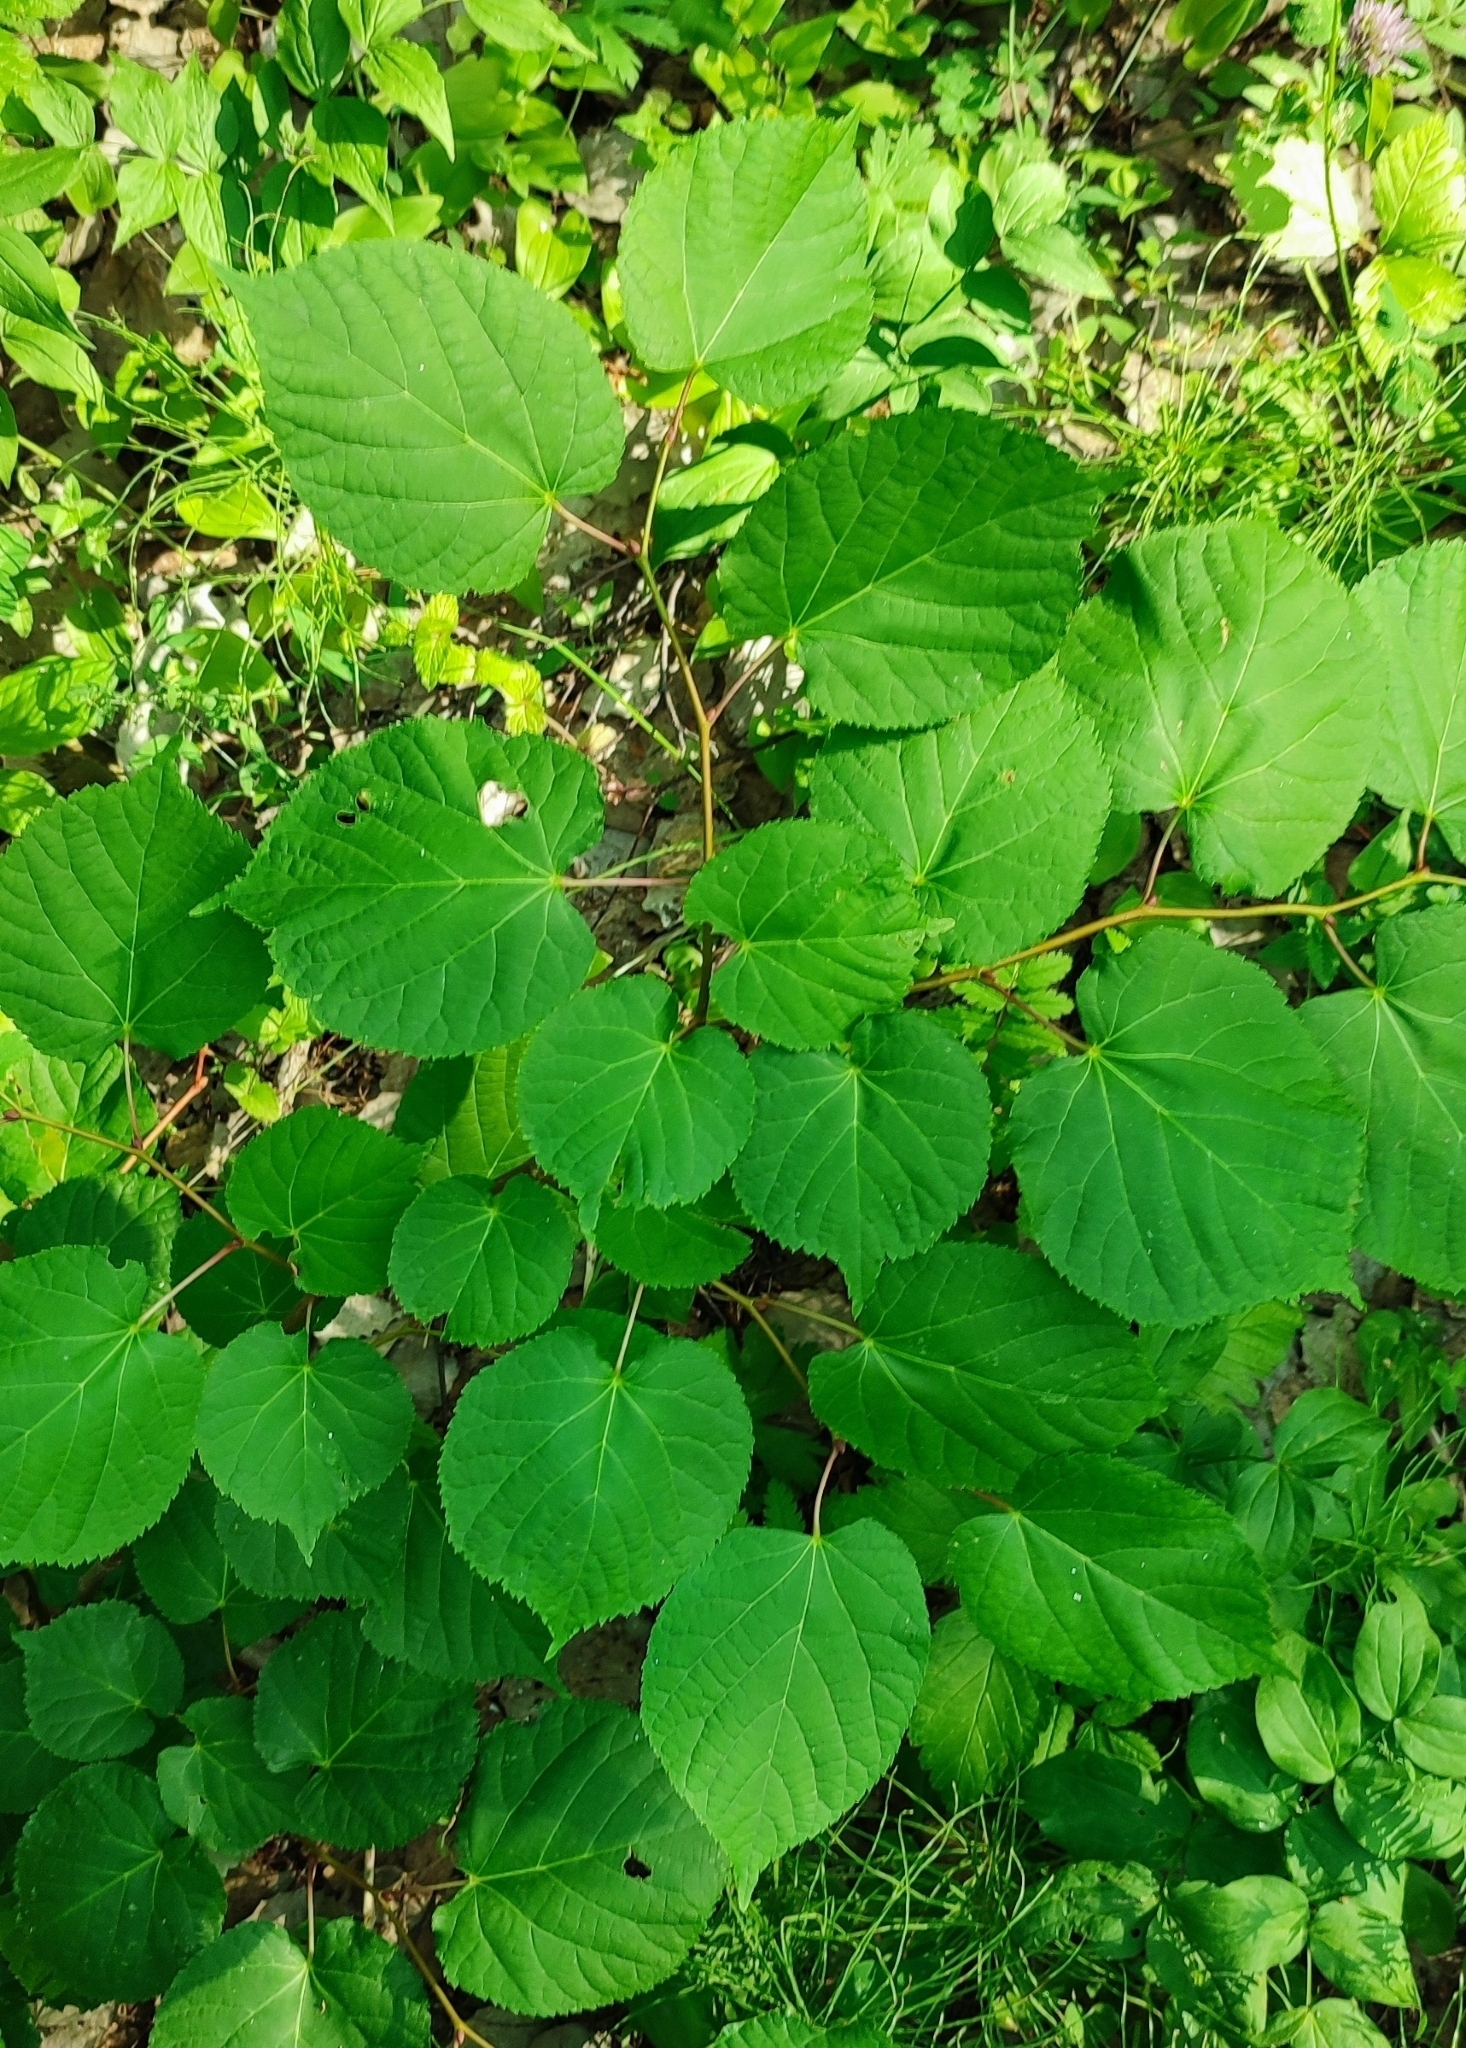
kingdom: Plantae
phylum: Tracheophyta
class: Magnoliopsida
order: Malvales
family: Malvaceae
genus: Tilia
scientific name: Tilia cordata
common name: Small-leaved lime
